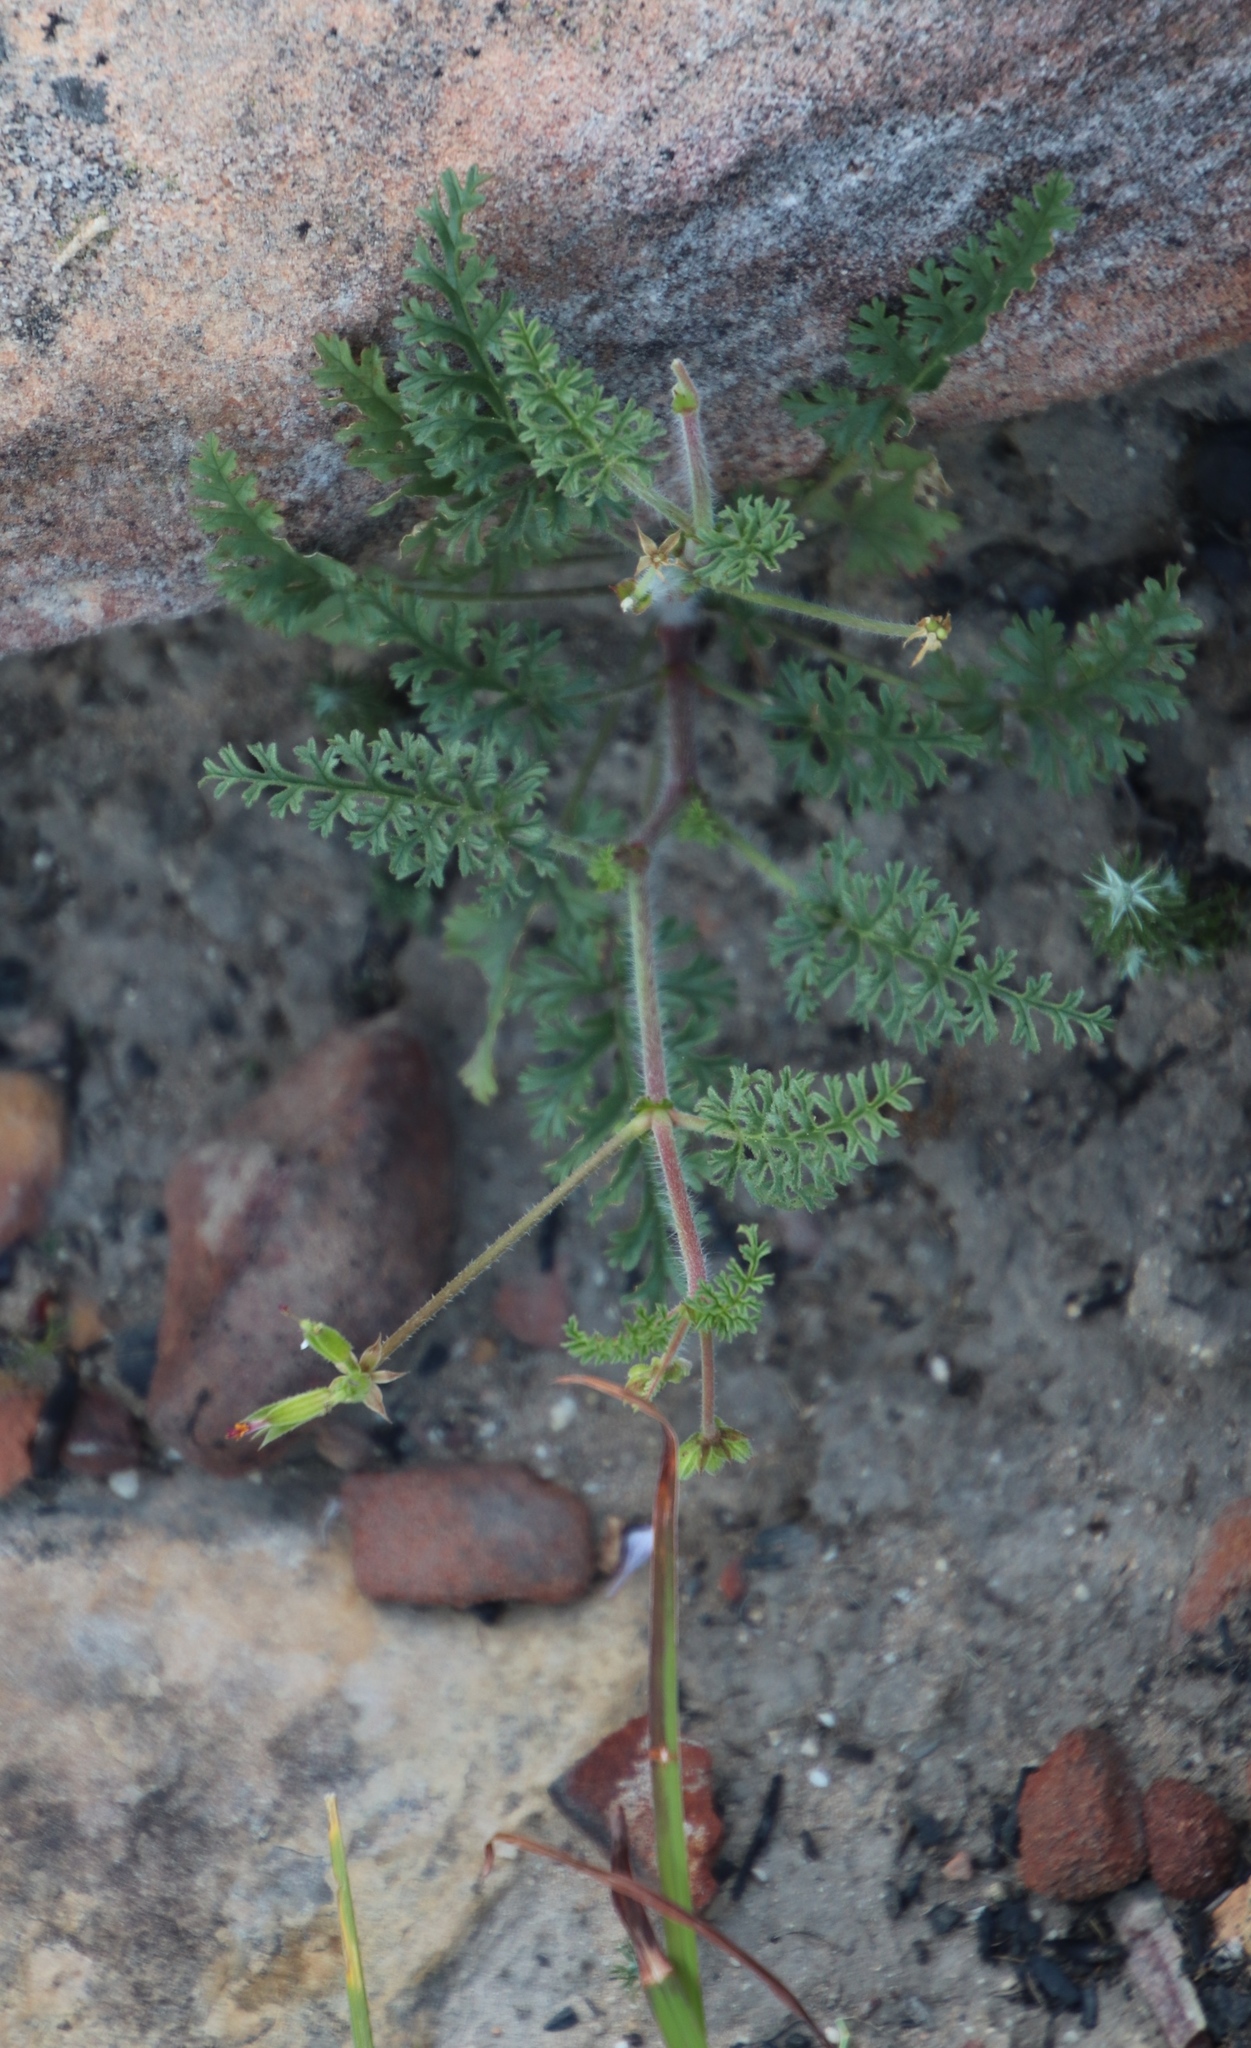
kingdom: Plantae
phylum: Tracheophyta
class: Magnoliopsida
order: Geraniales
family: Geraniaceae
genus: Pelargonium
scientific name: Pelargonium myrrhifolium
